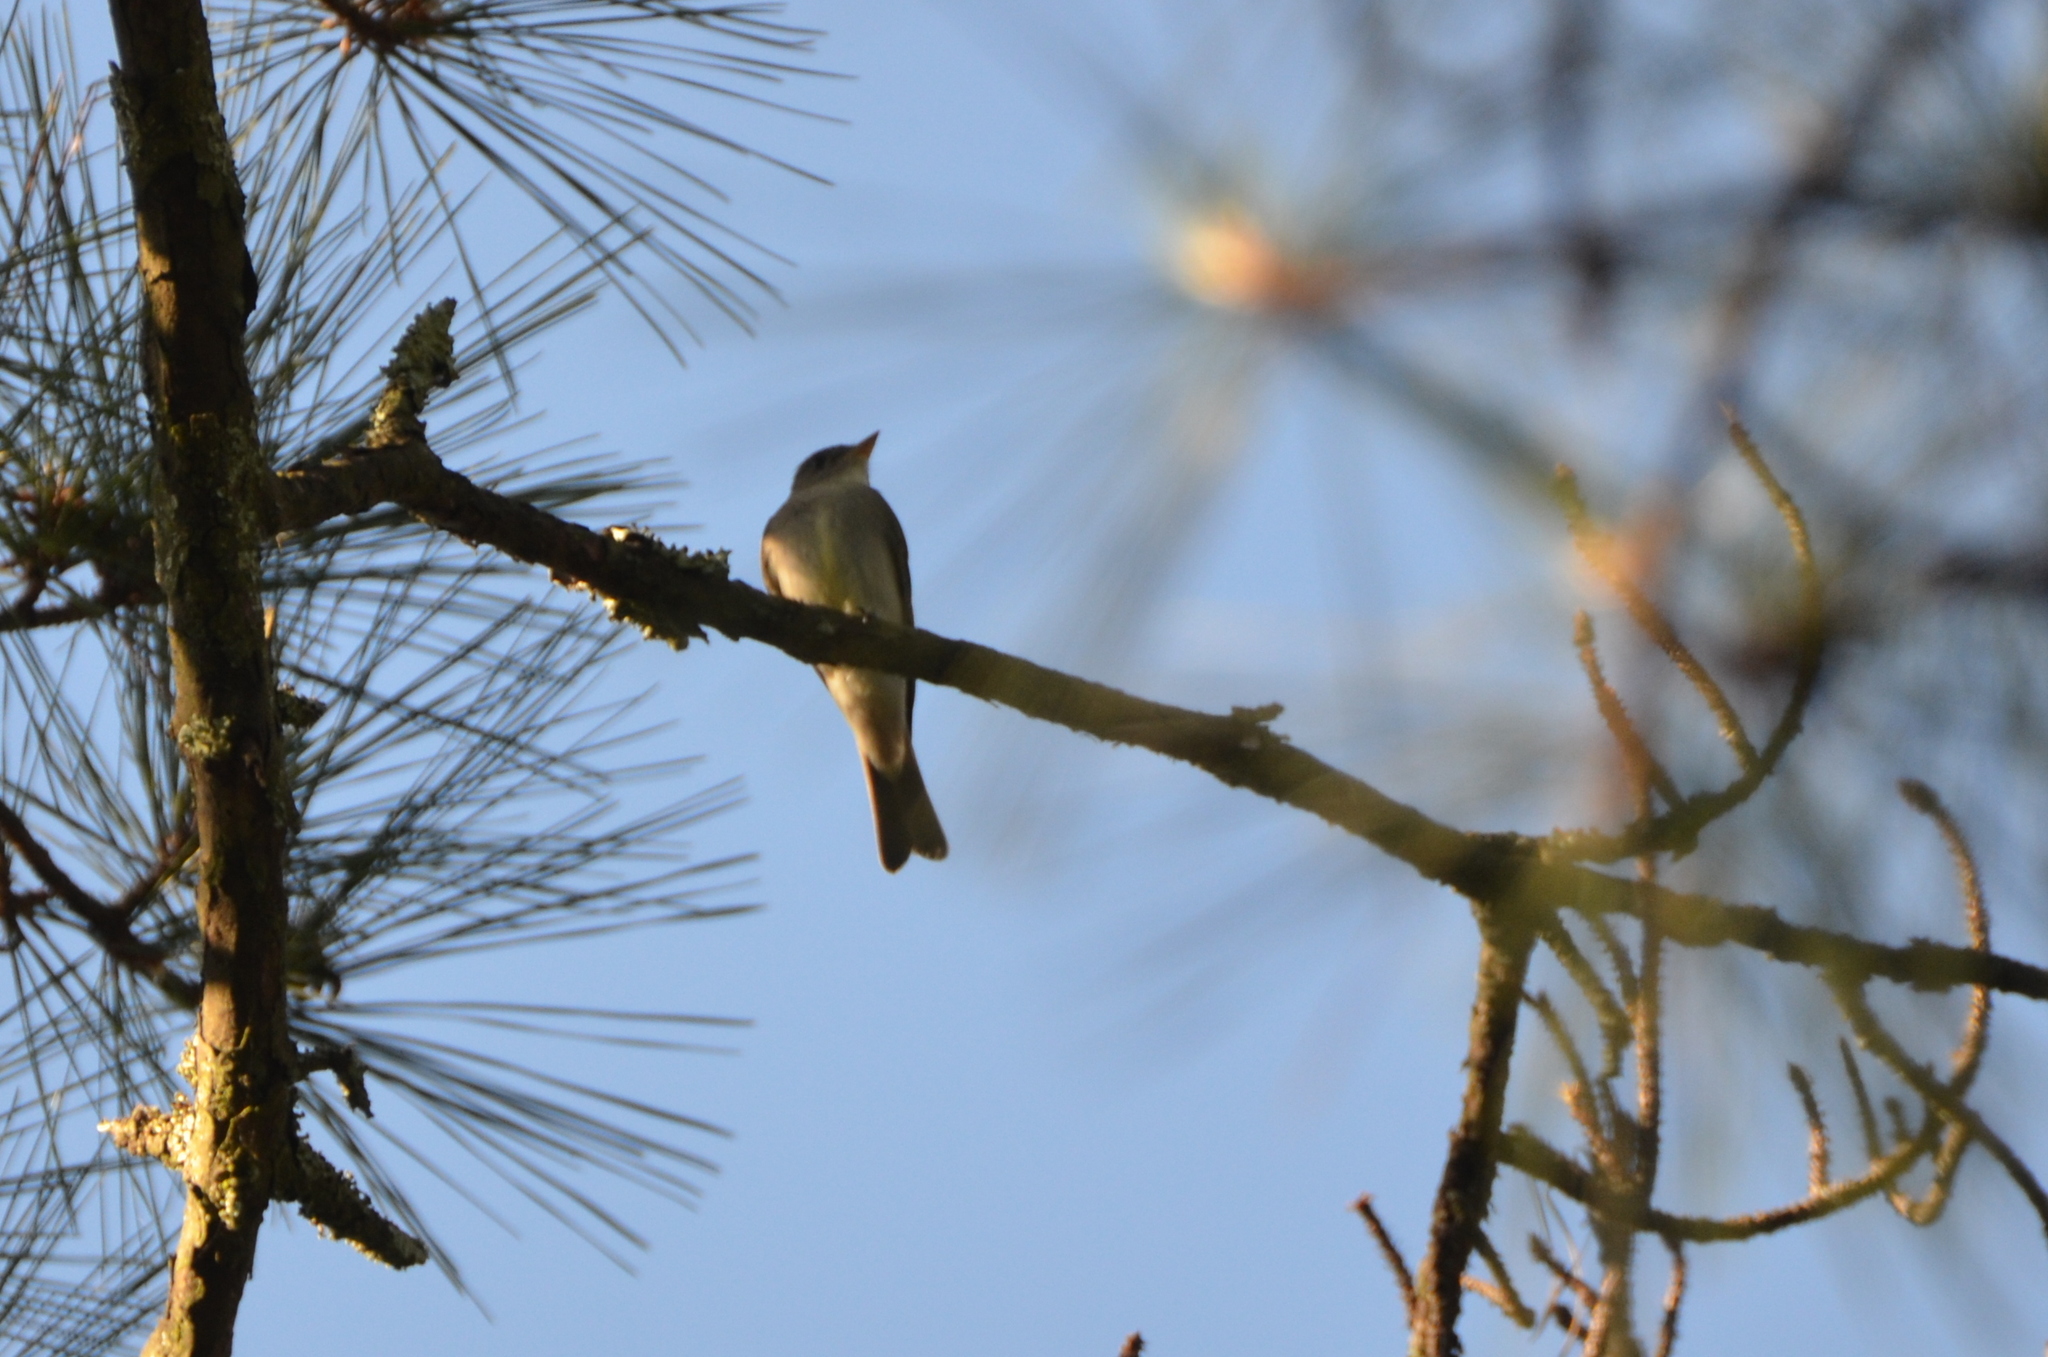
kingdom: Animalia
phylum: Chordata
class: Aves
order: Passeriformes
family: Tyrannidae
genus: Contopus
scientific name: Contopus virens
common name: Eastern wood-pewee
